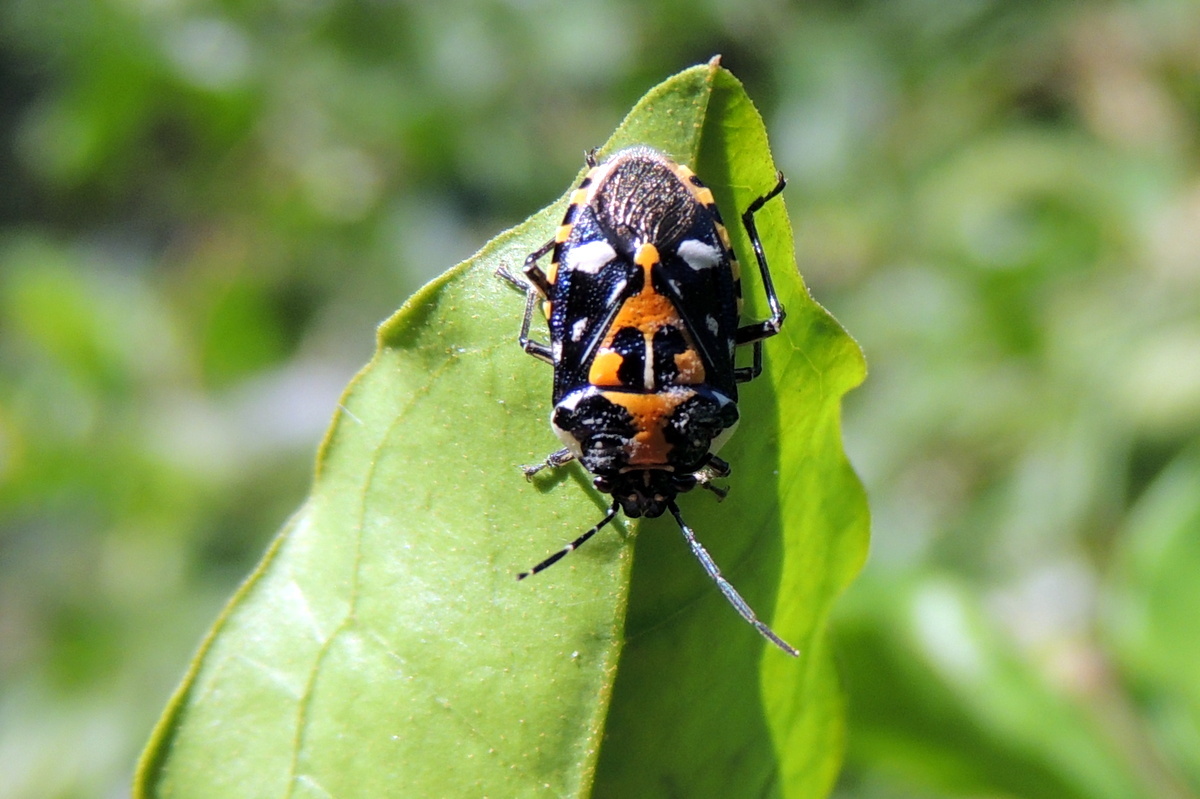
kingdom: Animalia
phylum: Arthropoda
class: Insecta
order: Hemiptera
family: Pentatomidae
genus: Stenozygum
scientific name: Stenozygum alienatum
